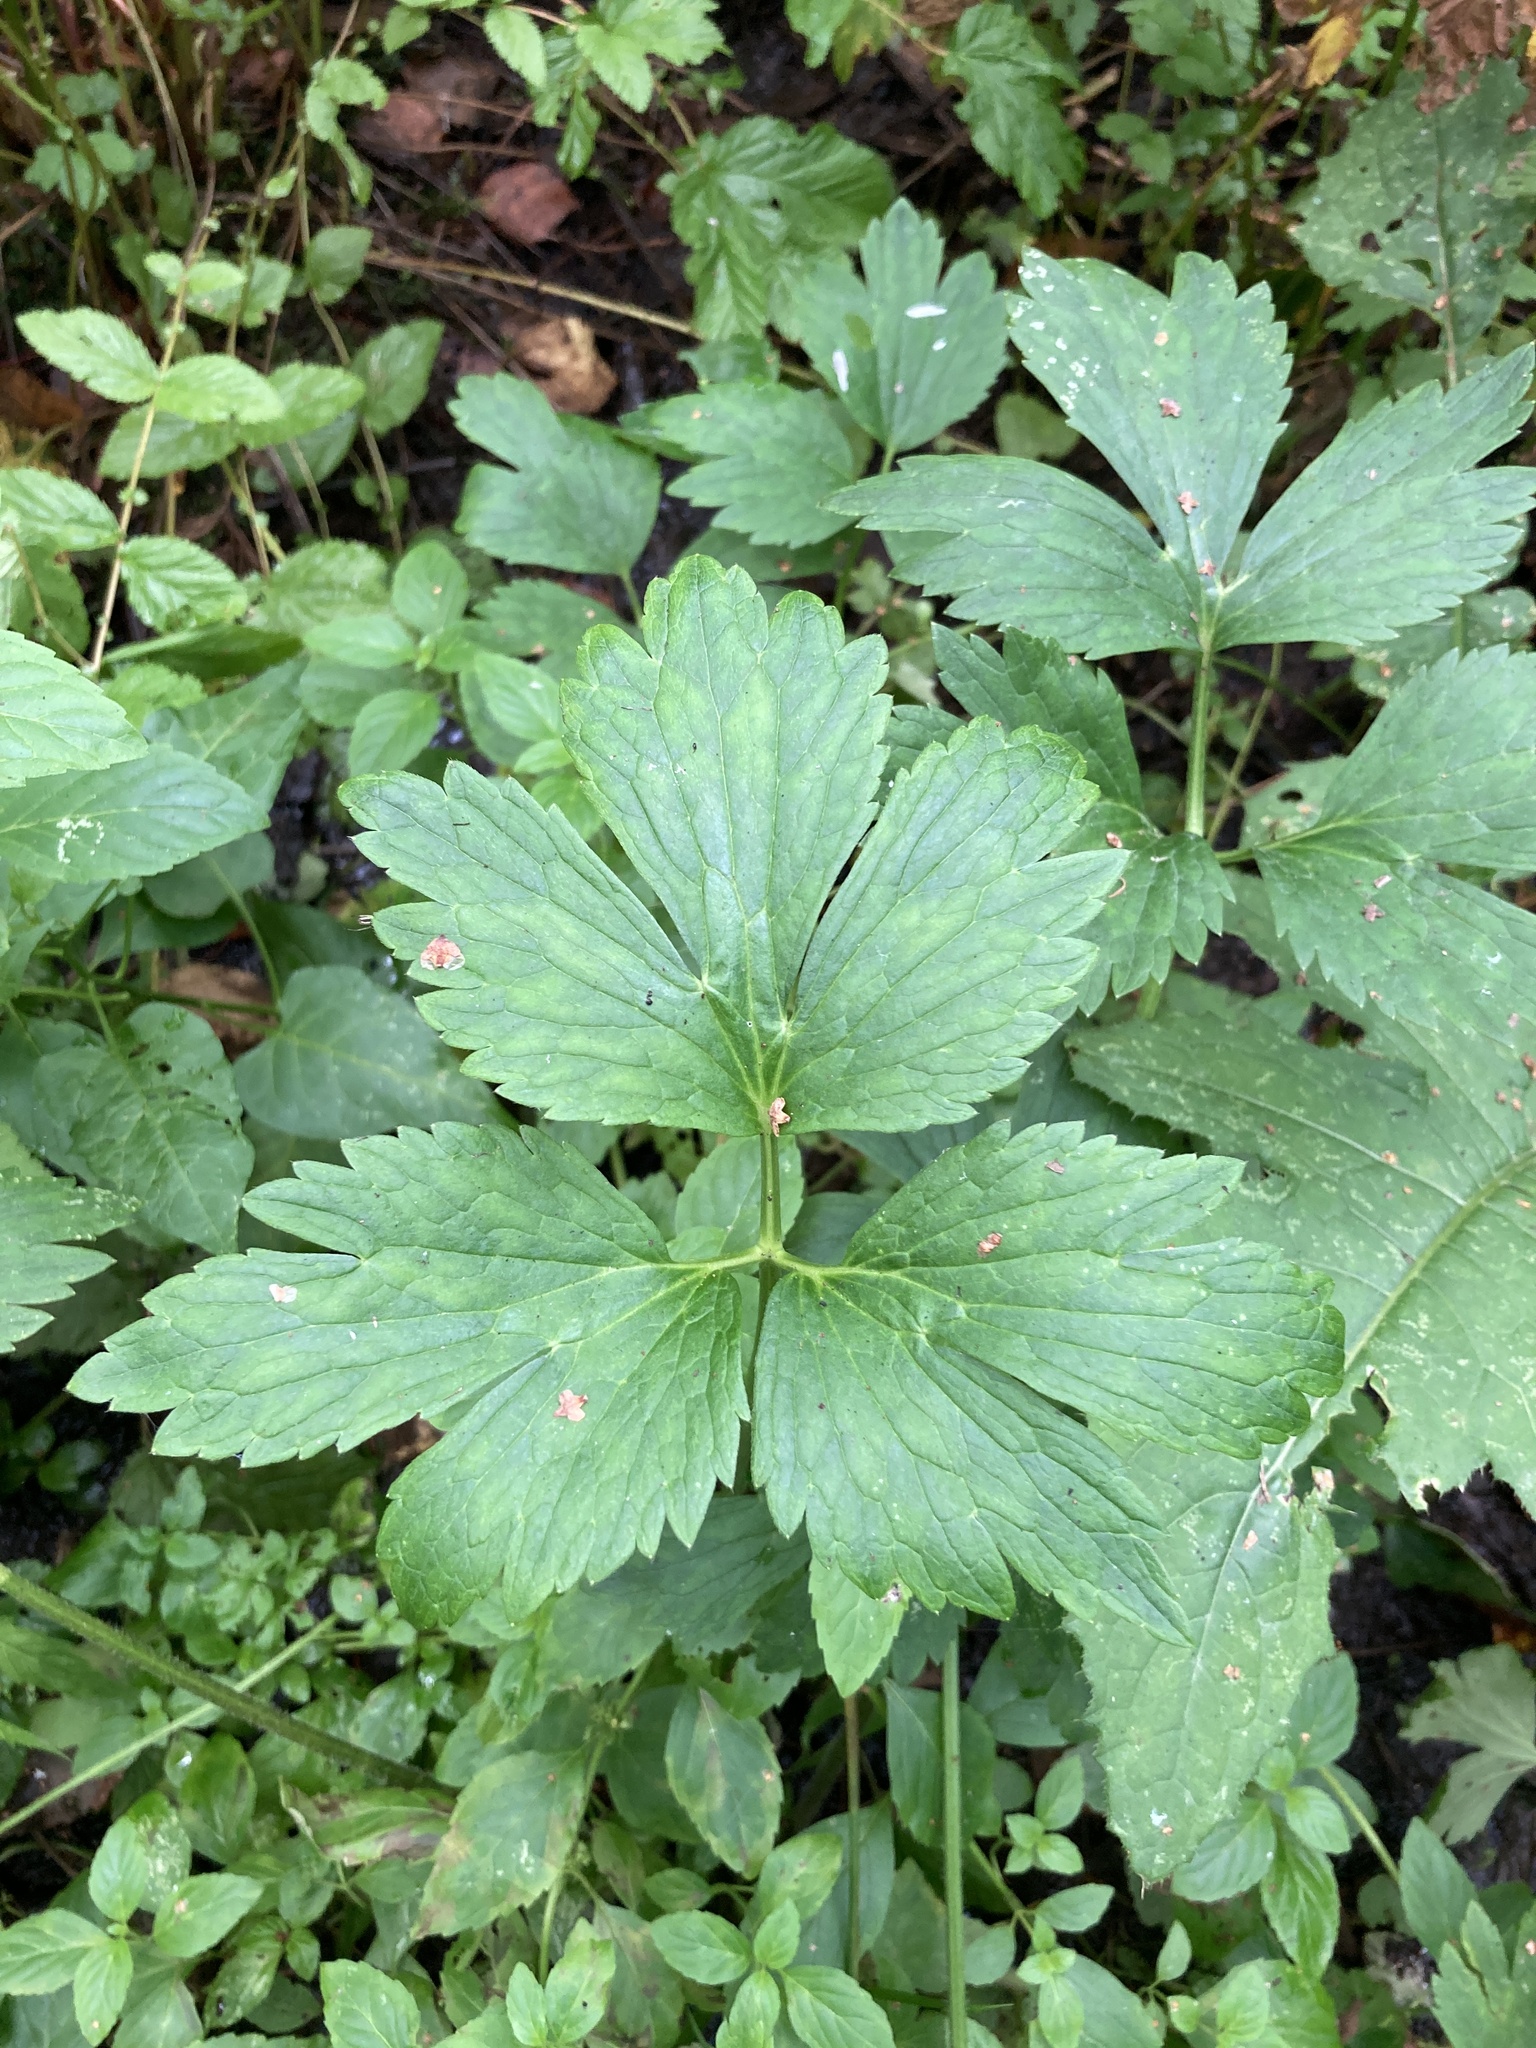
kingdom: Plantae
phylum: Tracheophyta
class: Magnoliopsida
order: Ranunculales
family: Ranunculaceae
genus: Ranunculus
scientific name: Ranunculus repens
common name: Creeping buttercup
